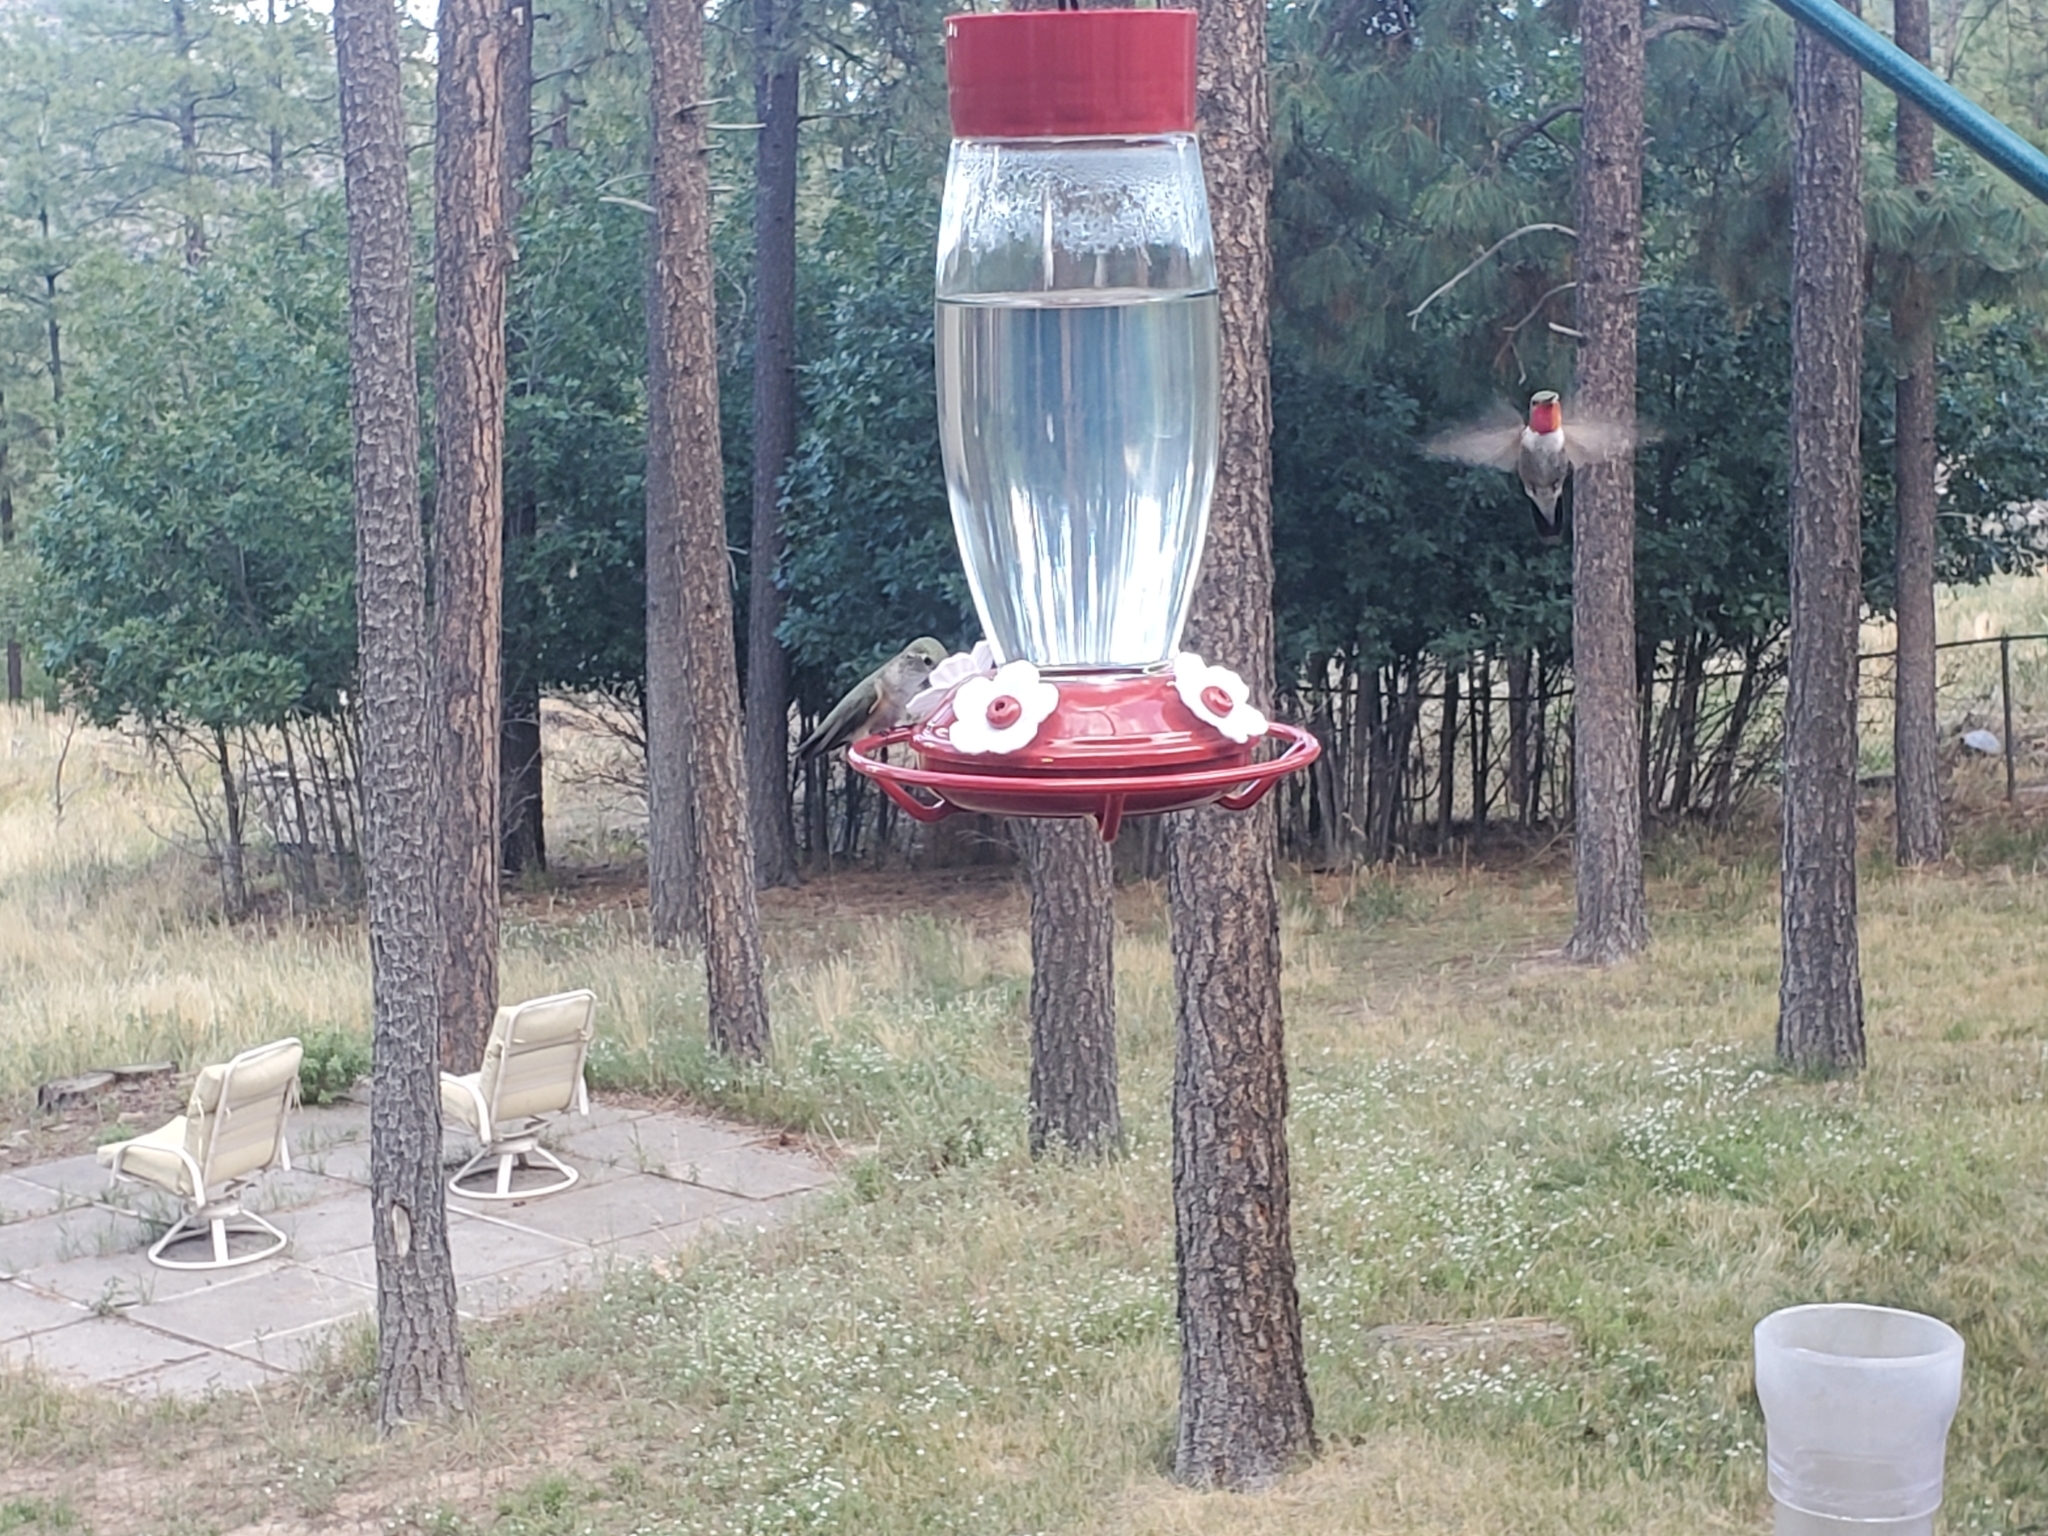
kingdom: Animalia
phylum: Chordata
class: Aves
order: Apodiformes
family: Trochilidae
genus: Selasphorus
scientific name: Selasphorus platycercus
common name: Broad-tailed hummingbird
